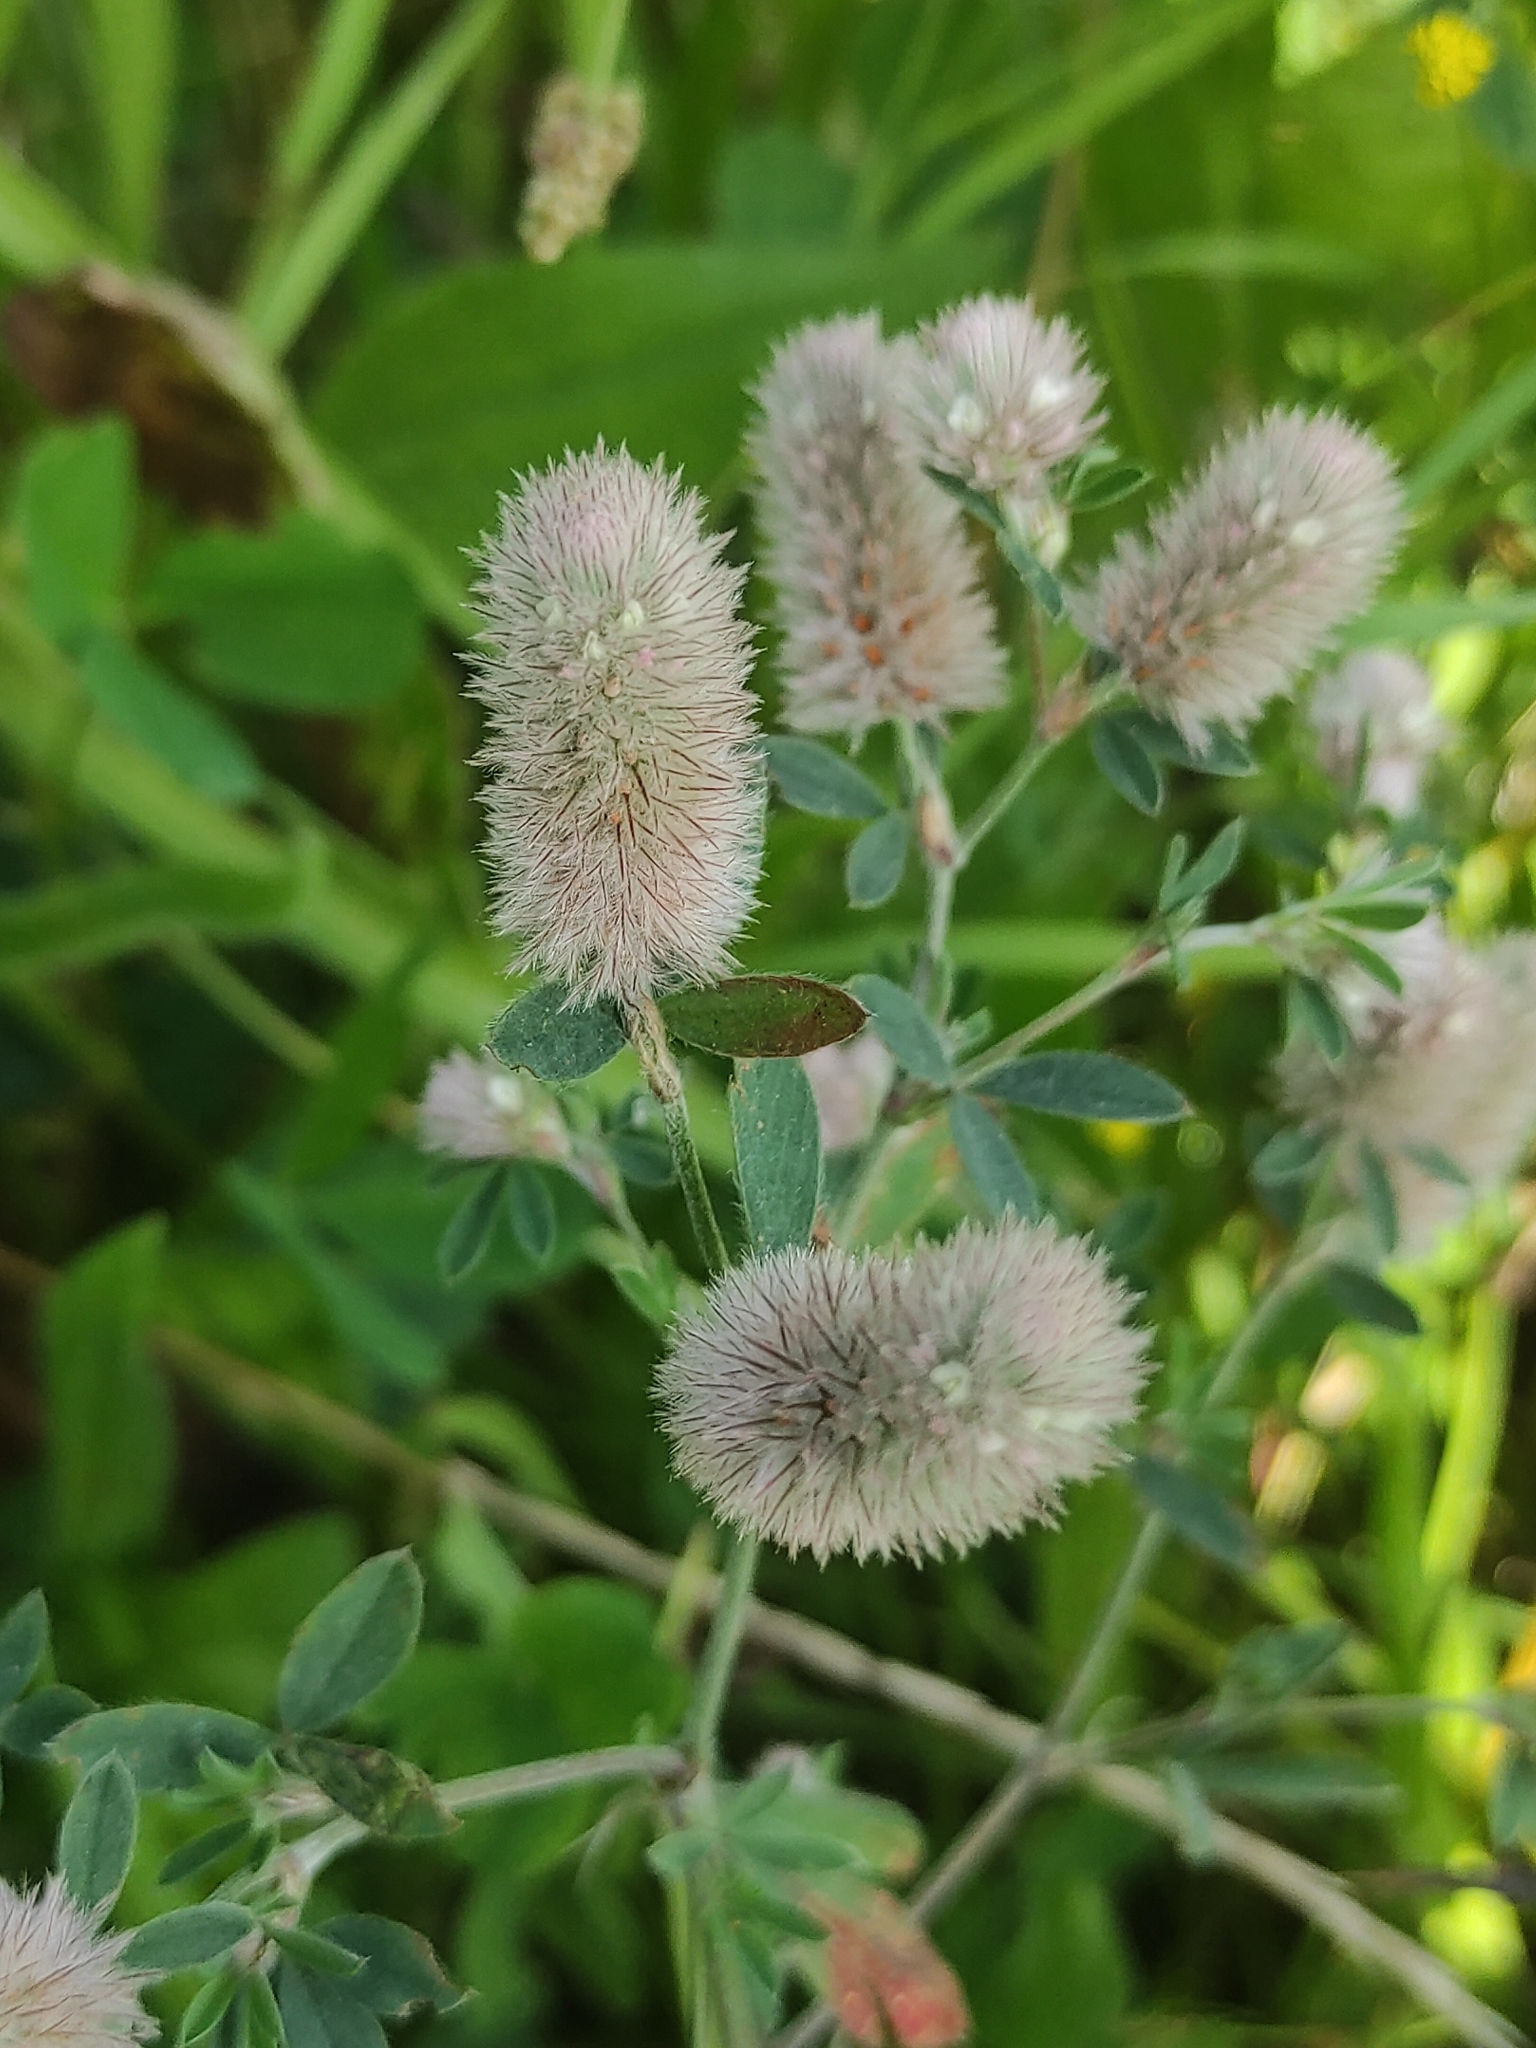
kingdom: Plantae
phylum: Tracheophyta
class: Magnoliopsida
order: Fabales
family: Fabaceae
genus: Trifolium
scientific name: Trifolium arvense
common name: Hare's-foot clover
